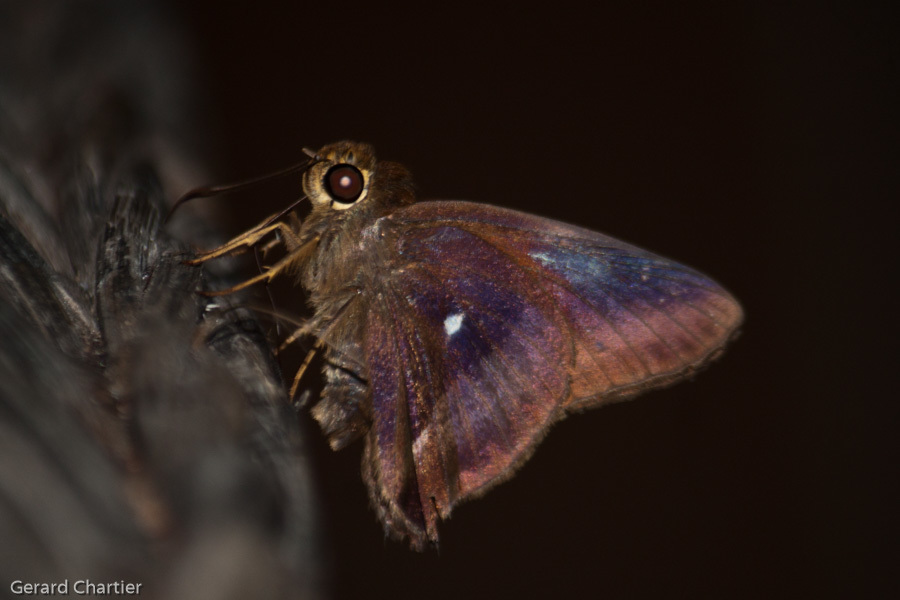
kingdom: Animalia
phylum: Arthropoda
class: Insecta
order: Lepidoptera
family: Hesperiidae
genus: Hasora
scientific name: Hasora badra
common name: Common awl
